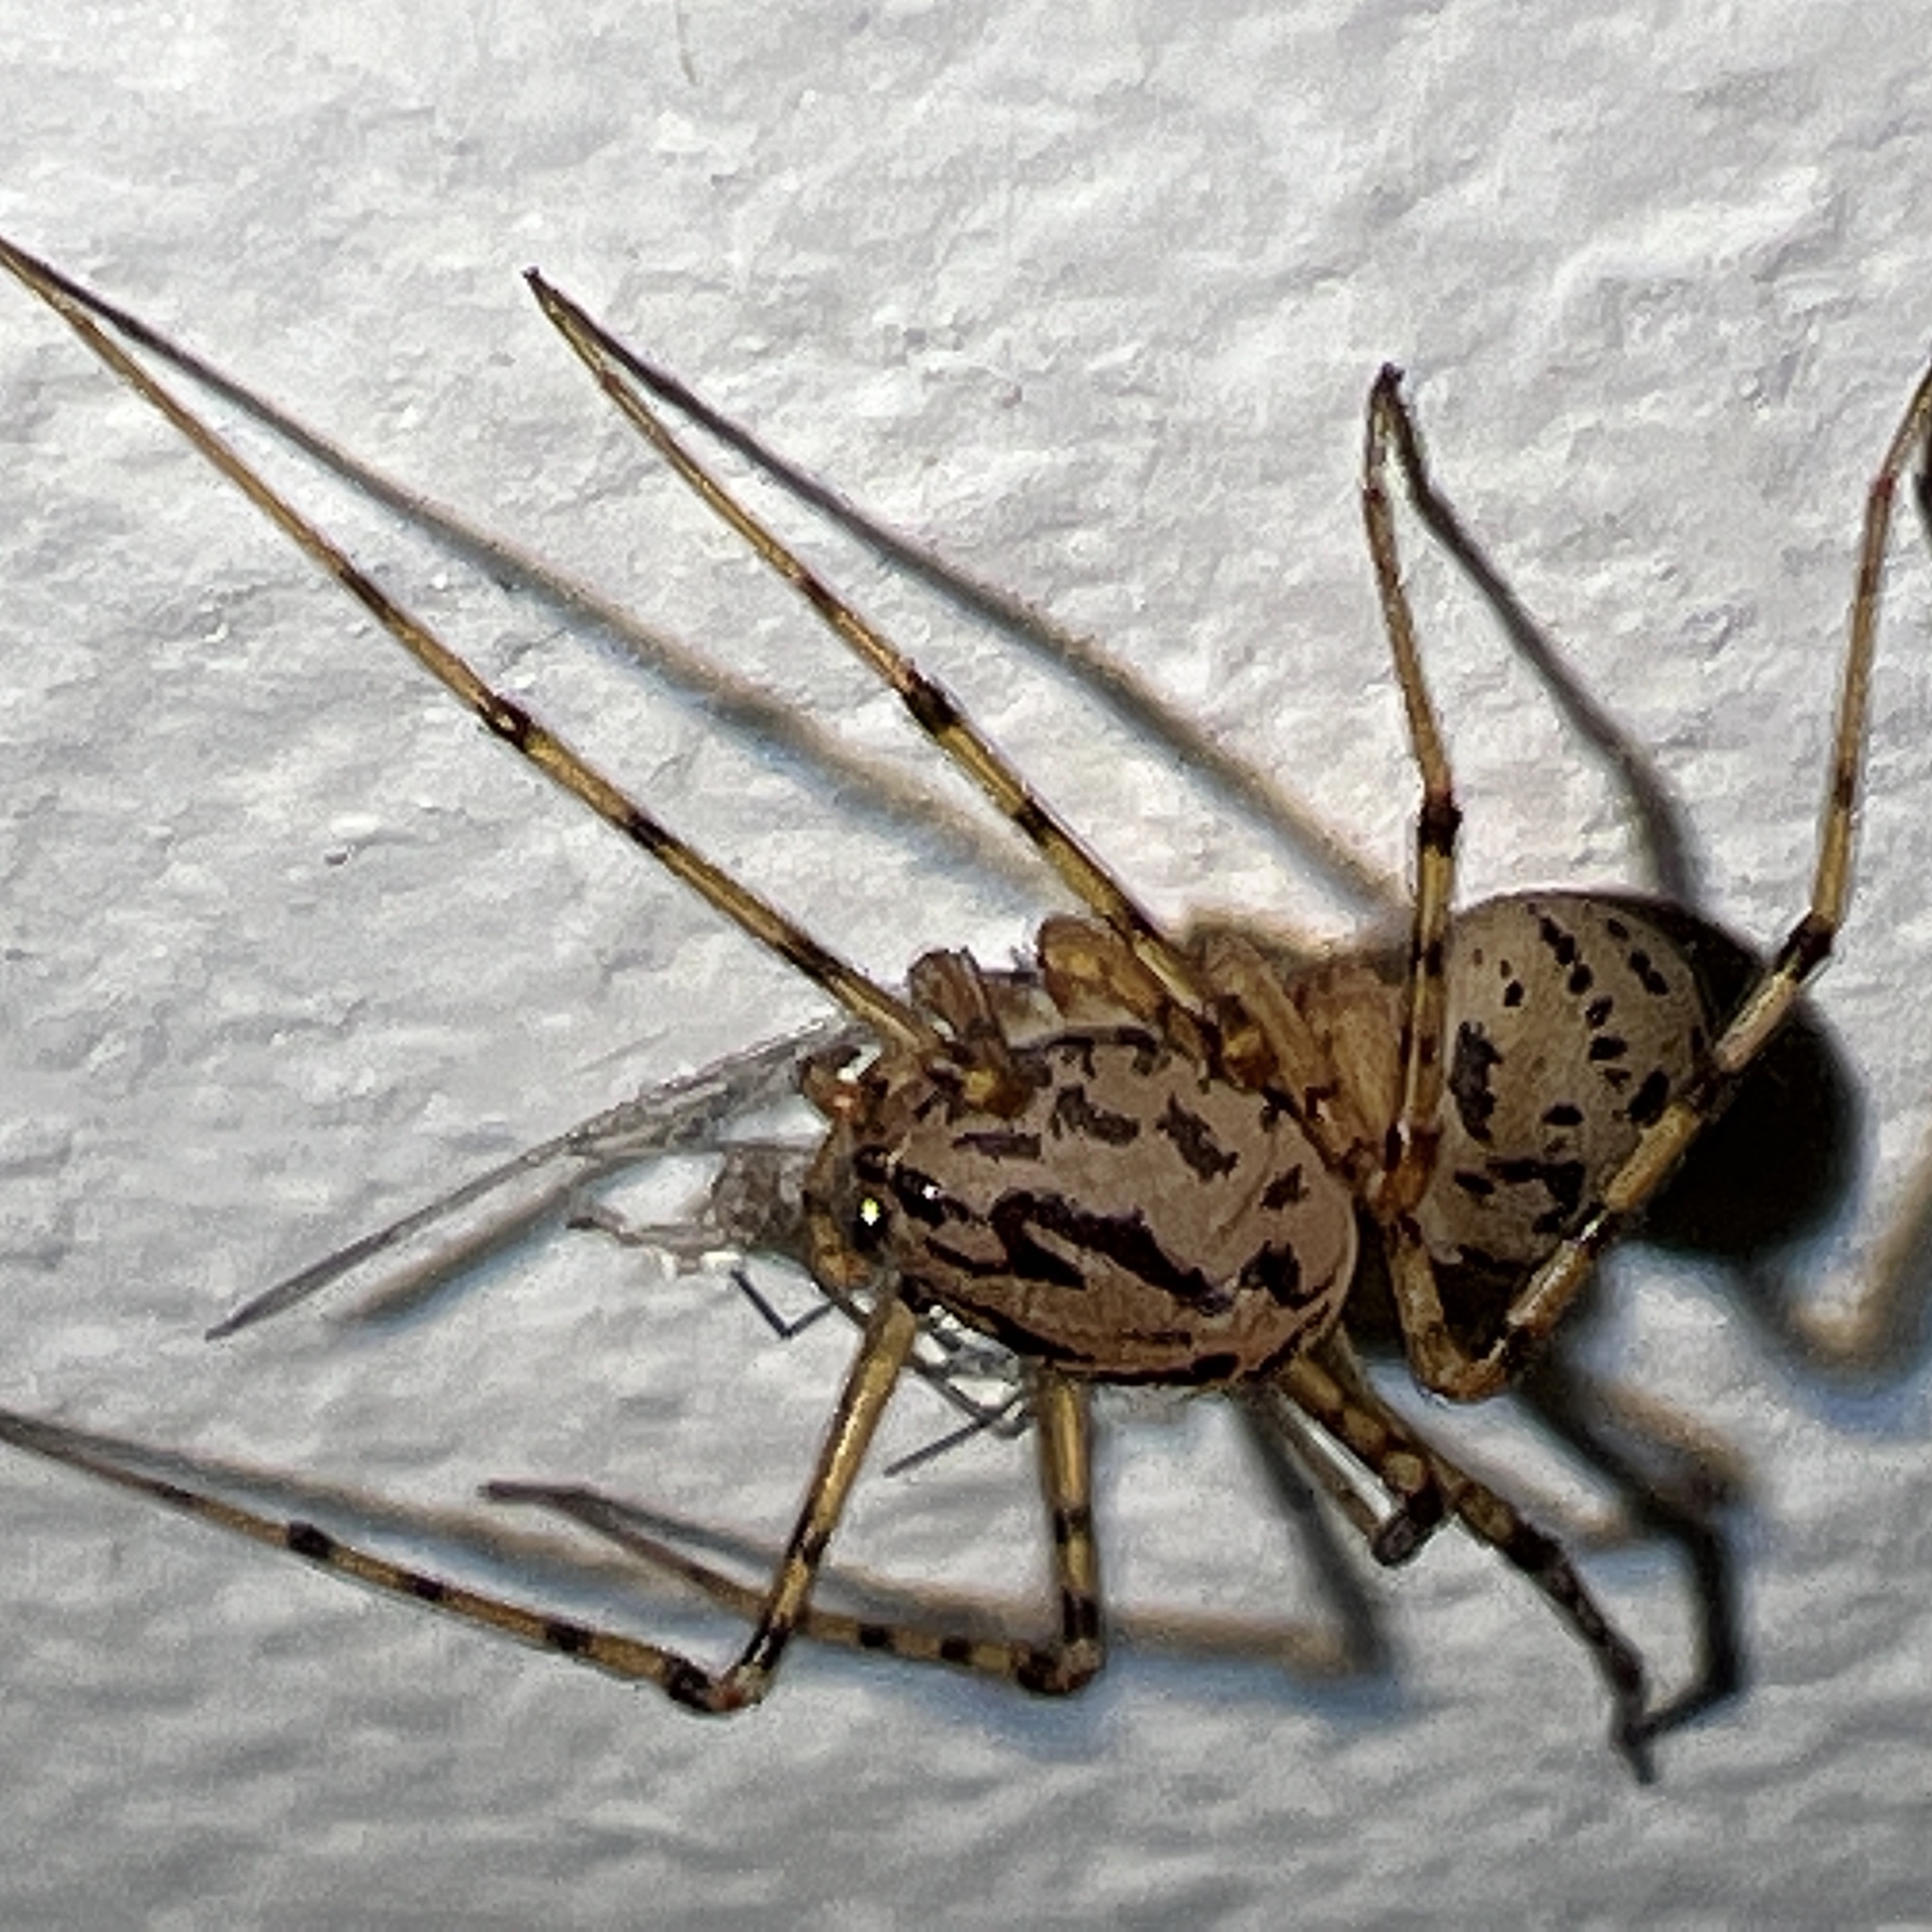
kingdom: Animalia
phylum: Arthropoda
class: Arachnida
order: Araneae
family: Scytodidae
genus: Scytodes
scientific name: Scytodes thoracica
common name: Spitting spider
